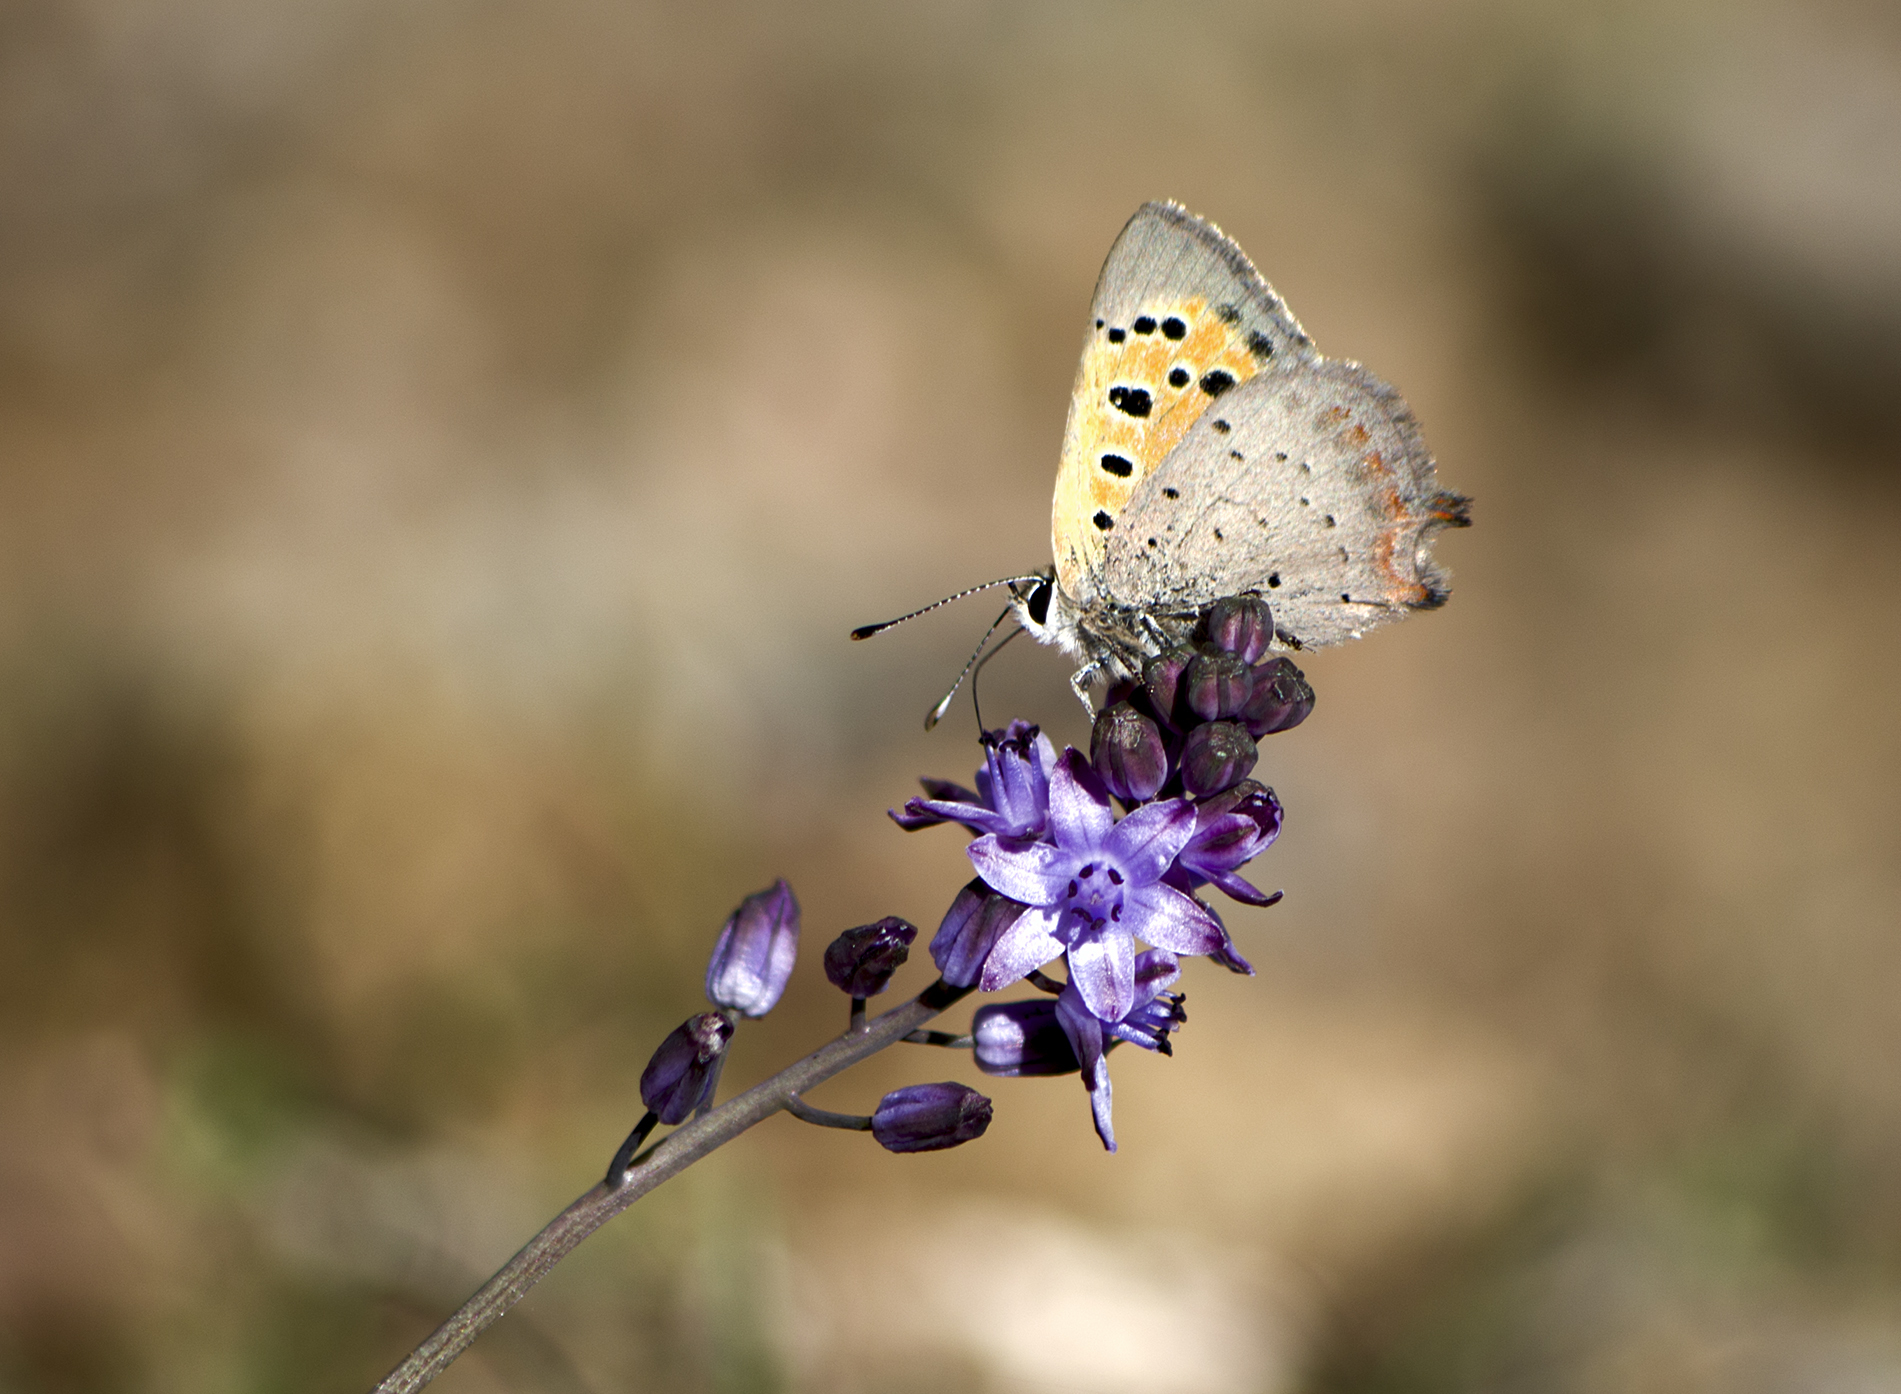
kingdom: Animalia
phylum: Arthropoda
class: Insecta
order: Lepidoptera
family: Lycaenidae
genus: Lycaena
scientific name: Lycaena phlaeas
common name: Small copper
